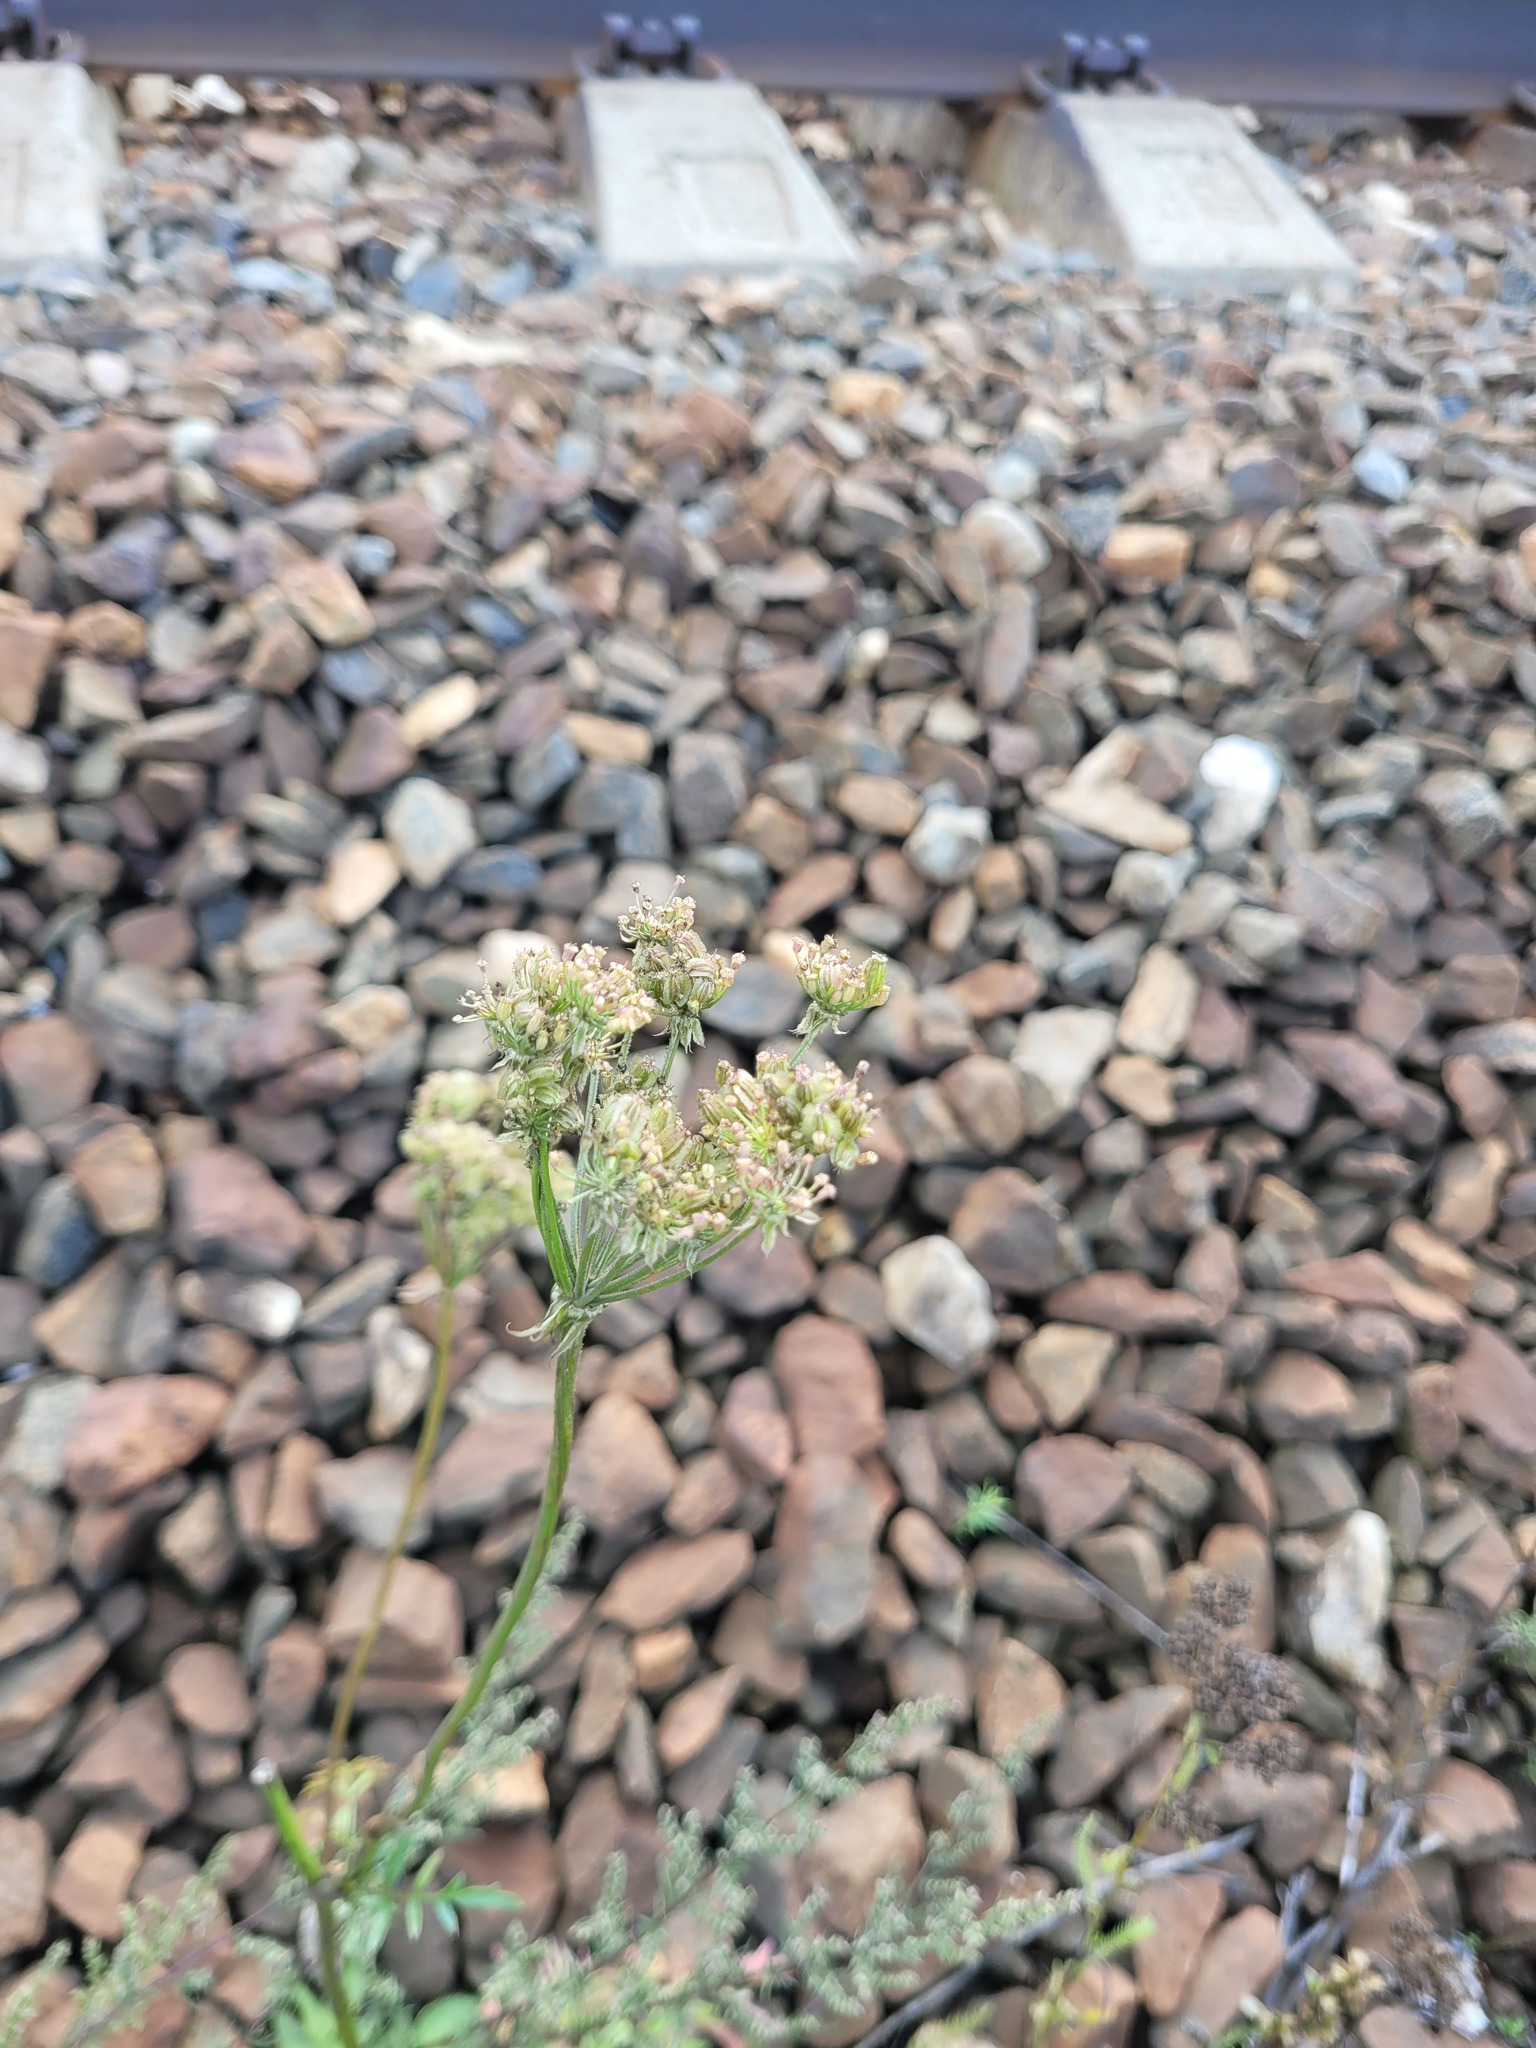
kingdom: Plantae
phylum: Tracheophyta
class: Magnoliopsida
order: Apiales
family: Apiaceae
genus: Silphiodaucus
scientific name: Silphiodaucus prutenicus
